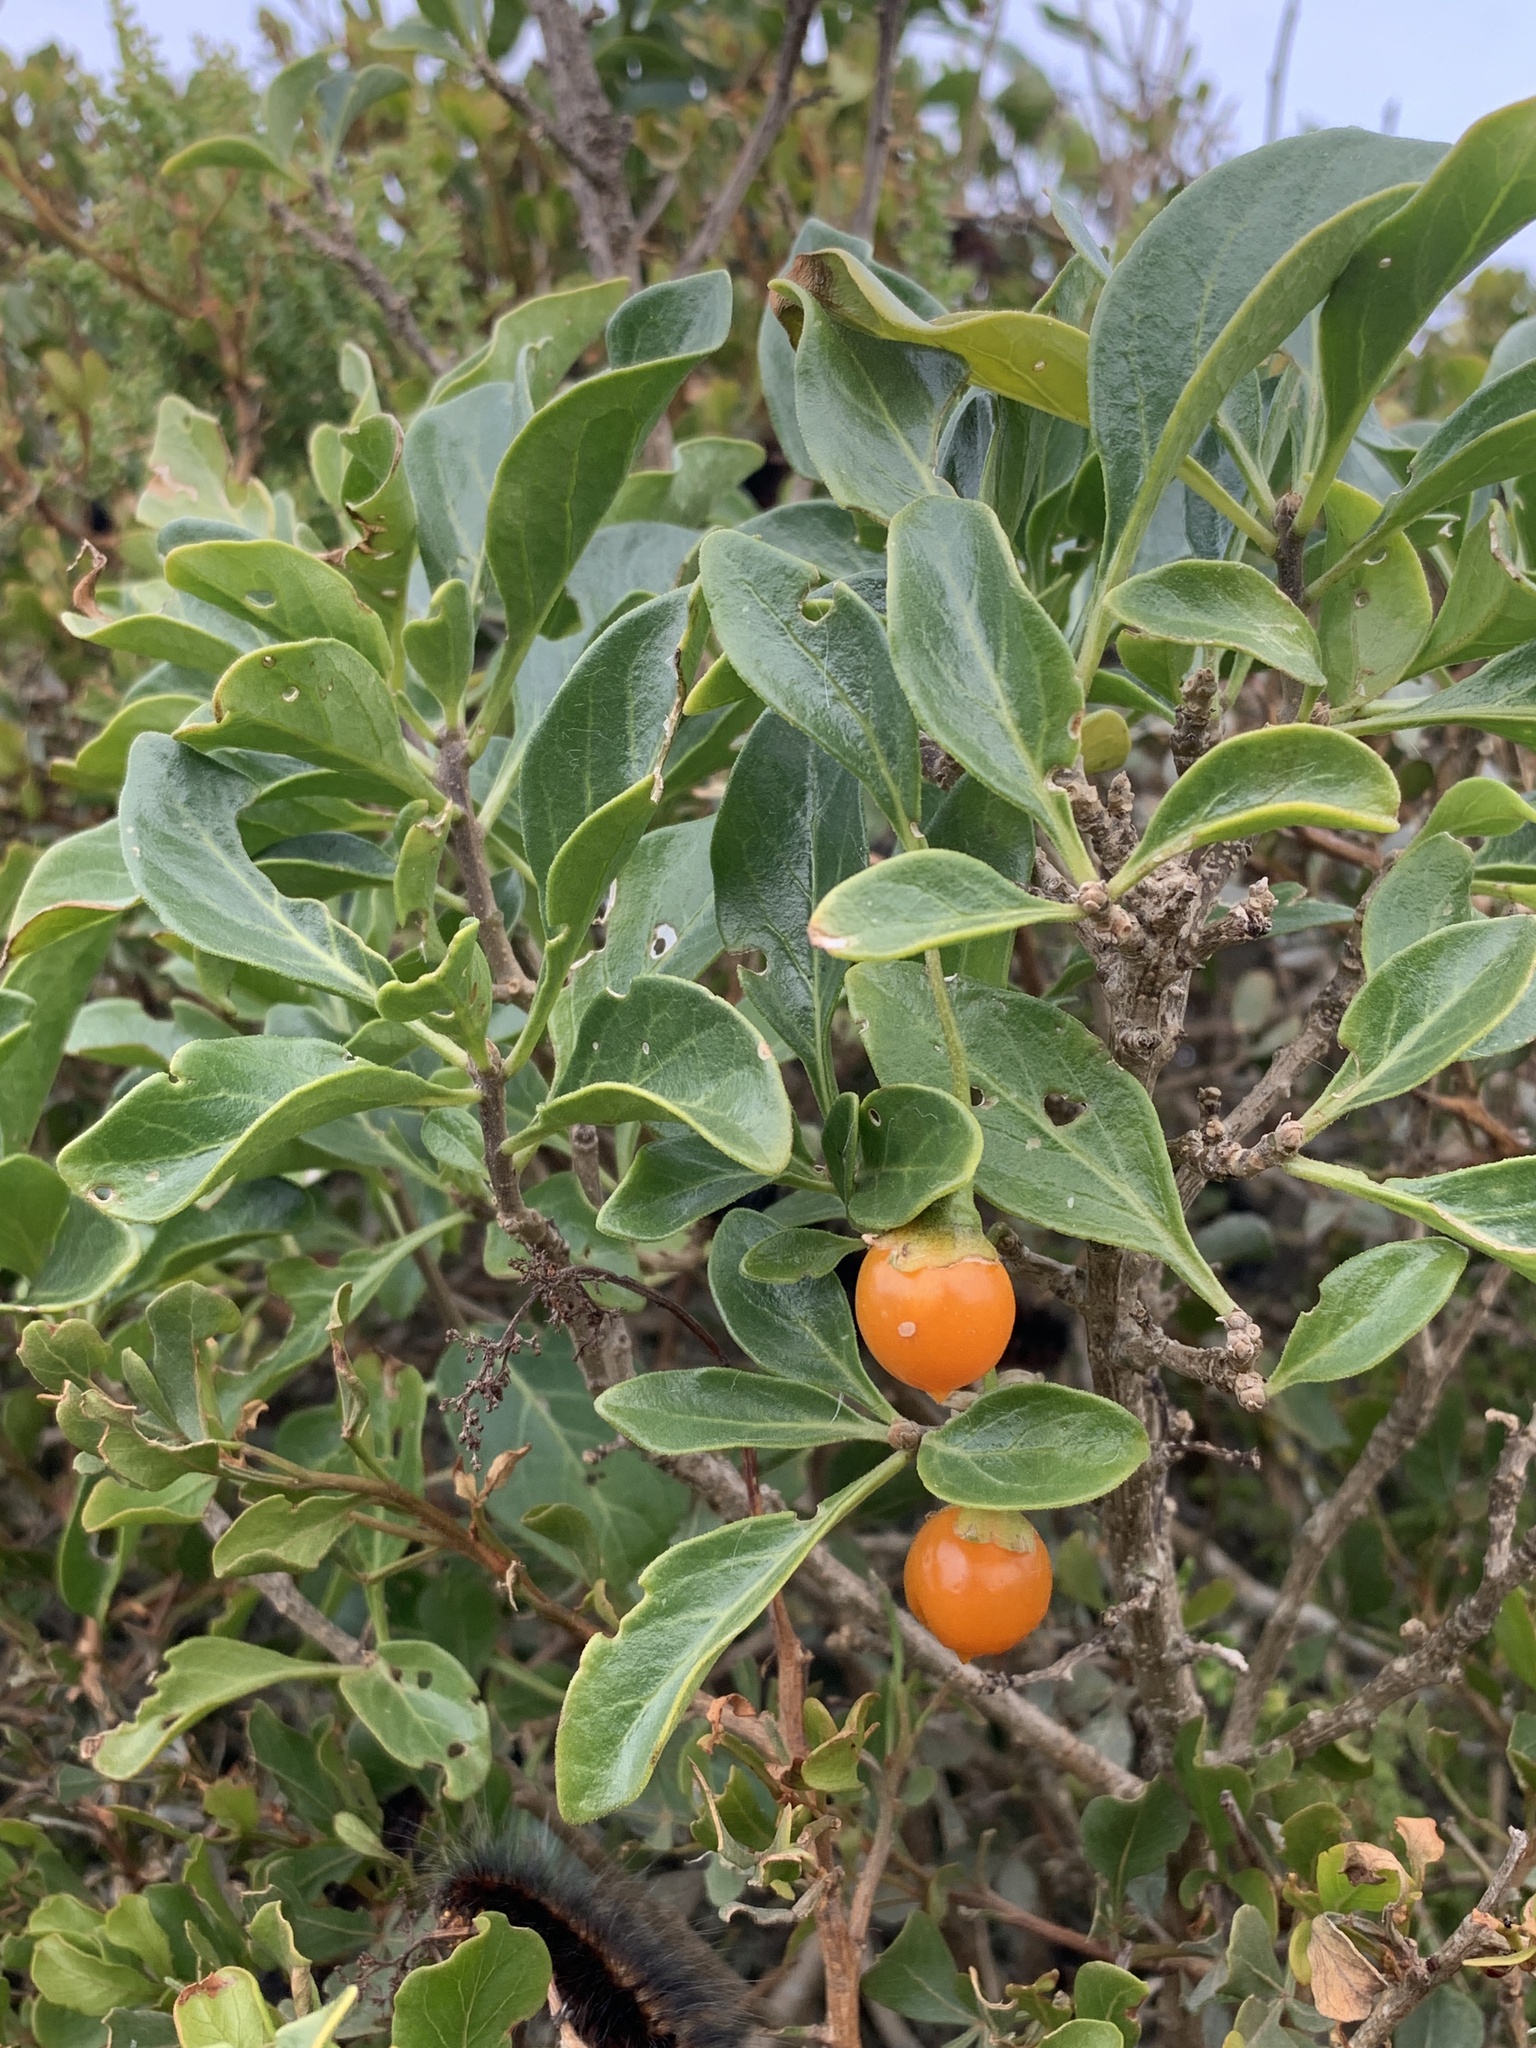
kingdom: Plantae
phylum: Tracheophyta
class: Magnoliopsida
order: Solanales
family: Solanaceae
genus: Solanum
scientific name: Solanum guineense
